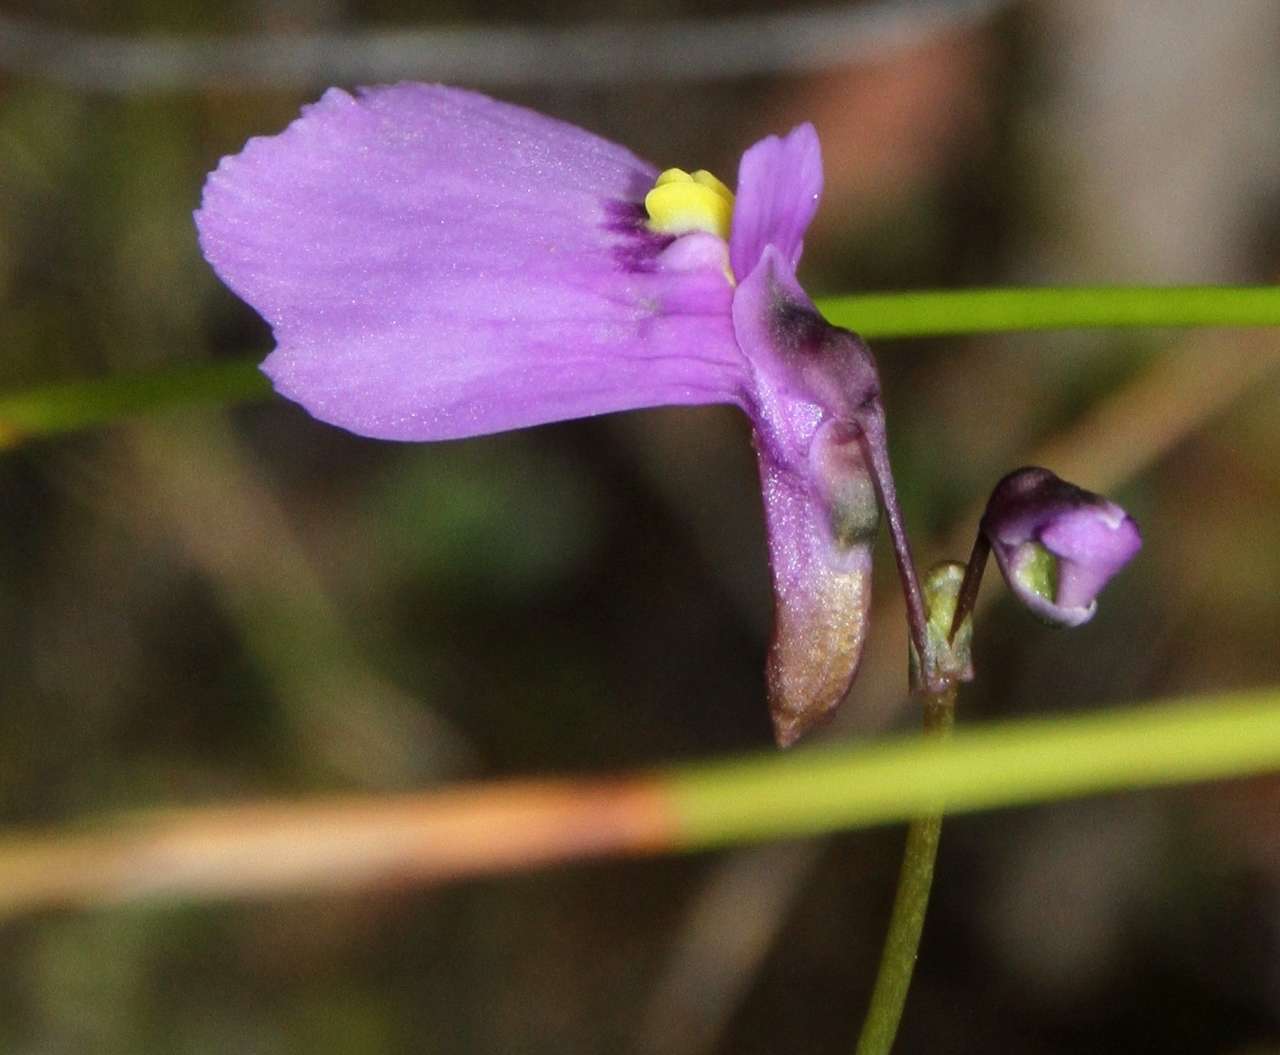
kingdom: Plantae
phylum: Tracheophyta
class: Magnoliopsida
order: Lamiales
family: Lentibulariaceae
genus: Utricularia
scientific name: Utricularia dichotoma
